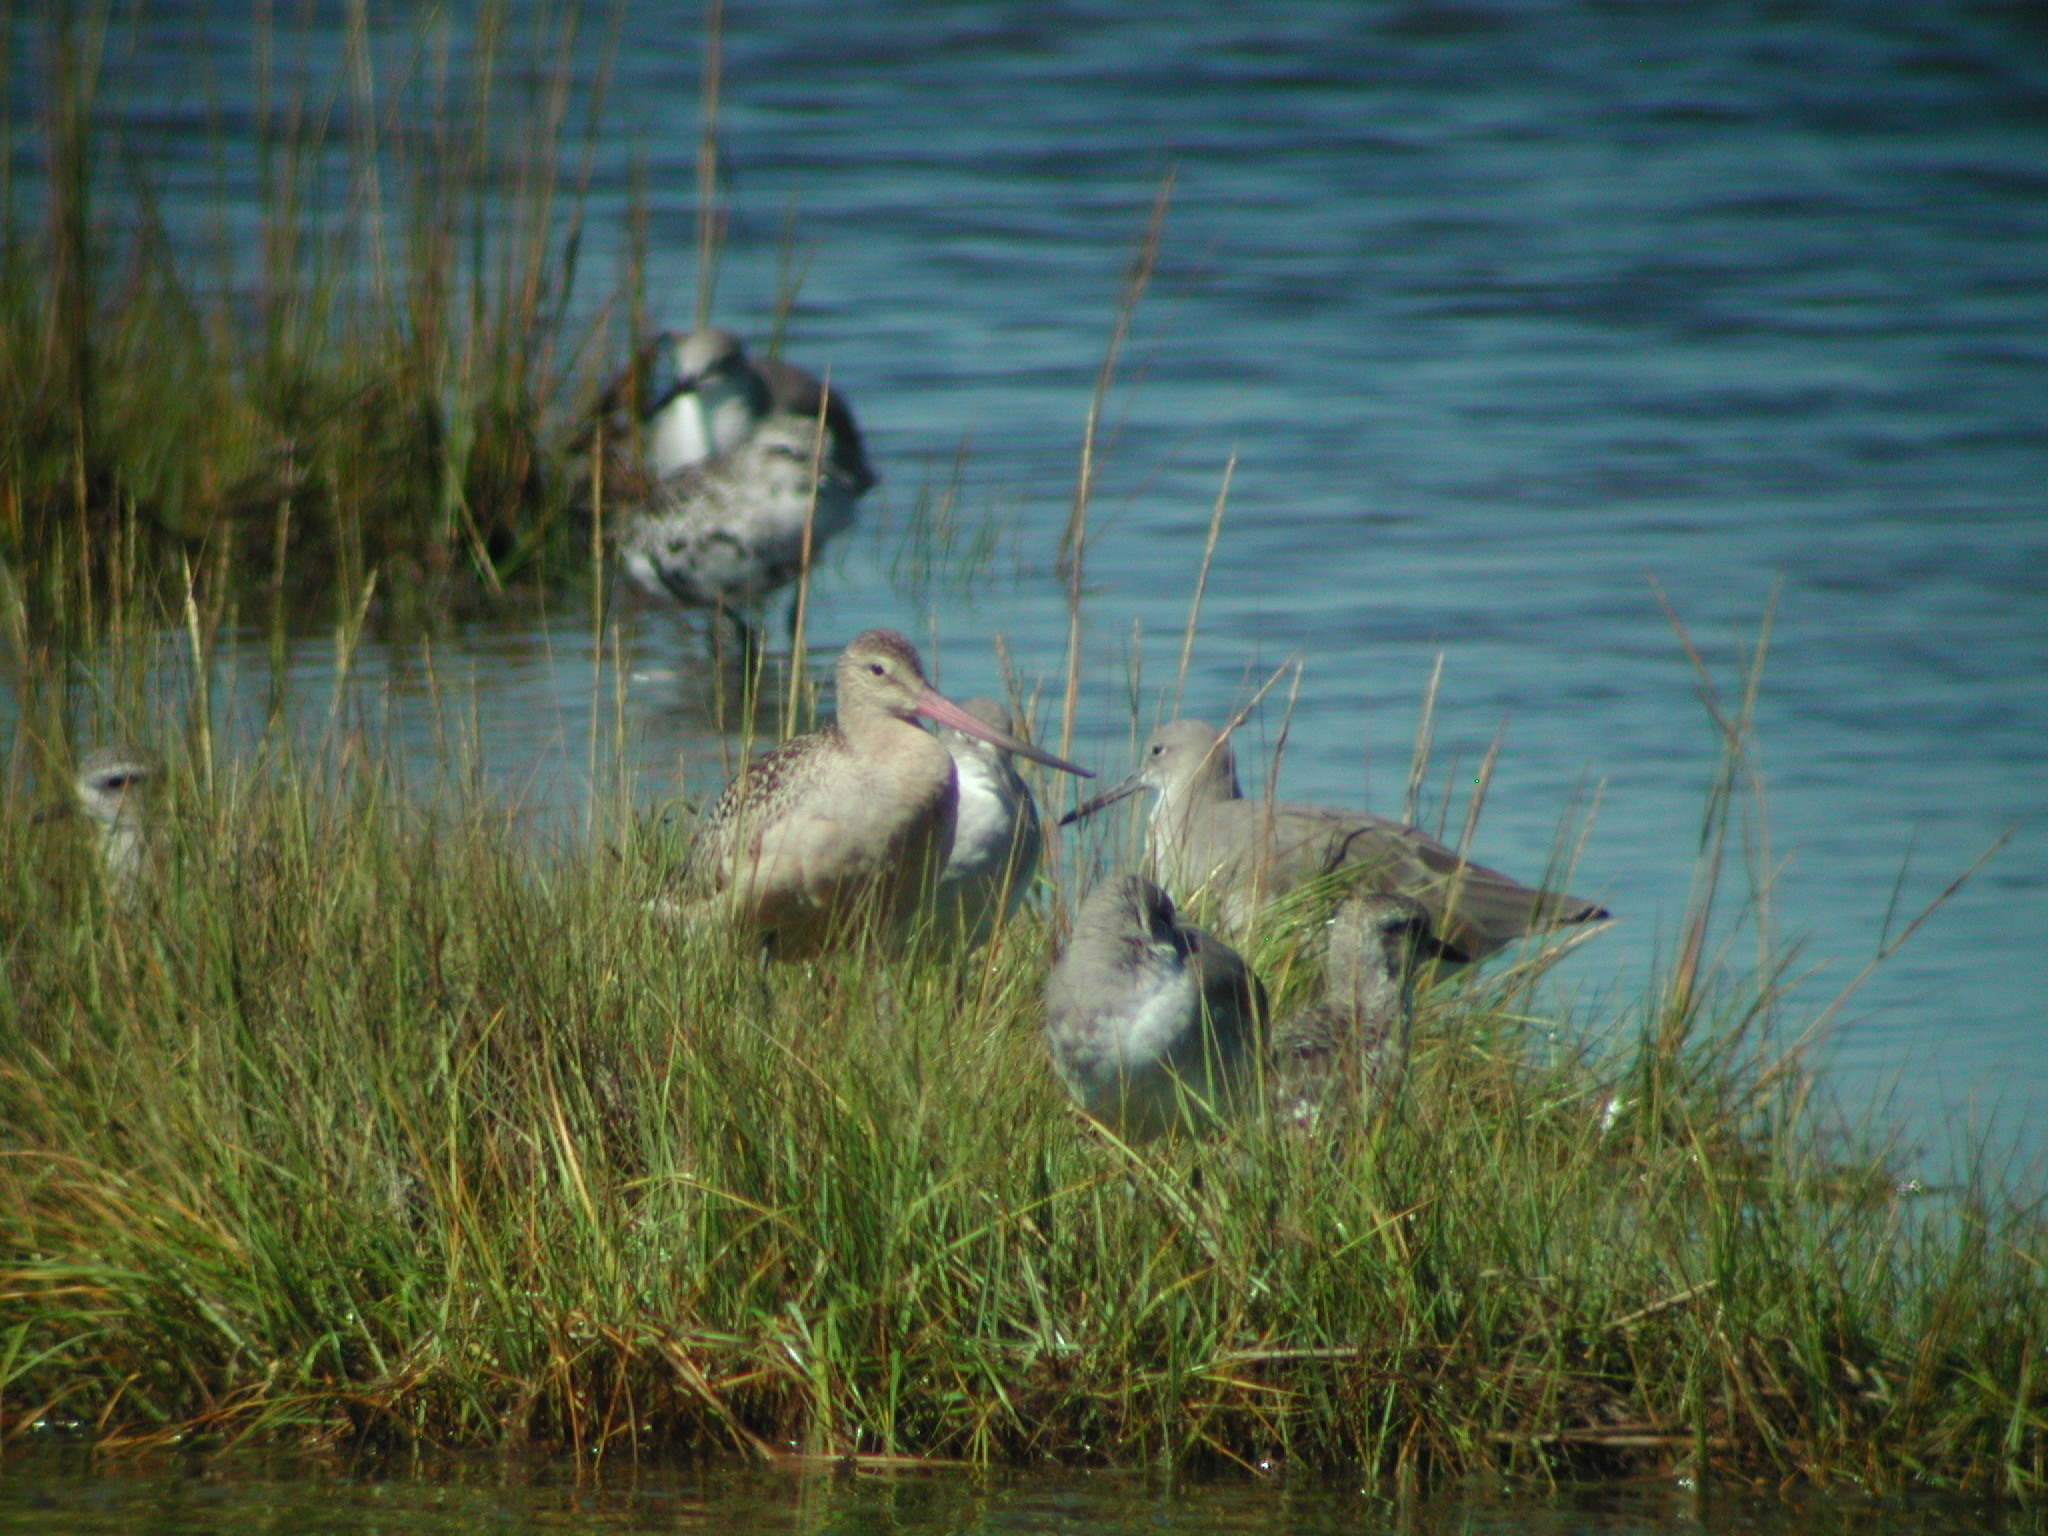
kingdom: Animalia
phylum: Chordata
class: Aves
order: Charadriiformes
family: Scolopacidae
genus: Limosa
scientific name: Limosa fedoa
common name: Marbled godwit
